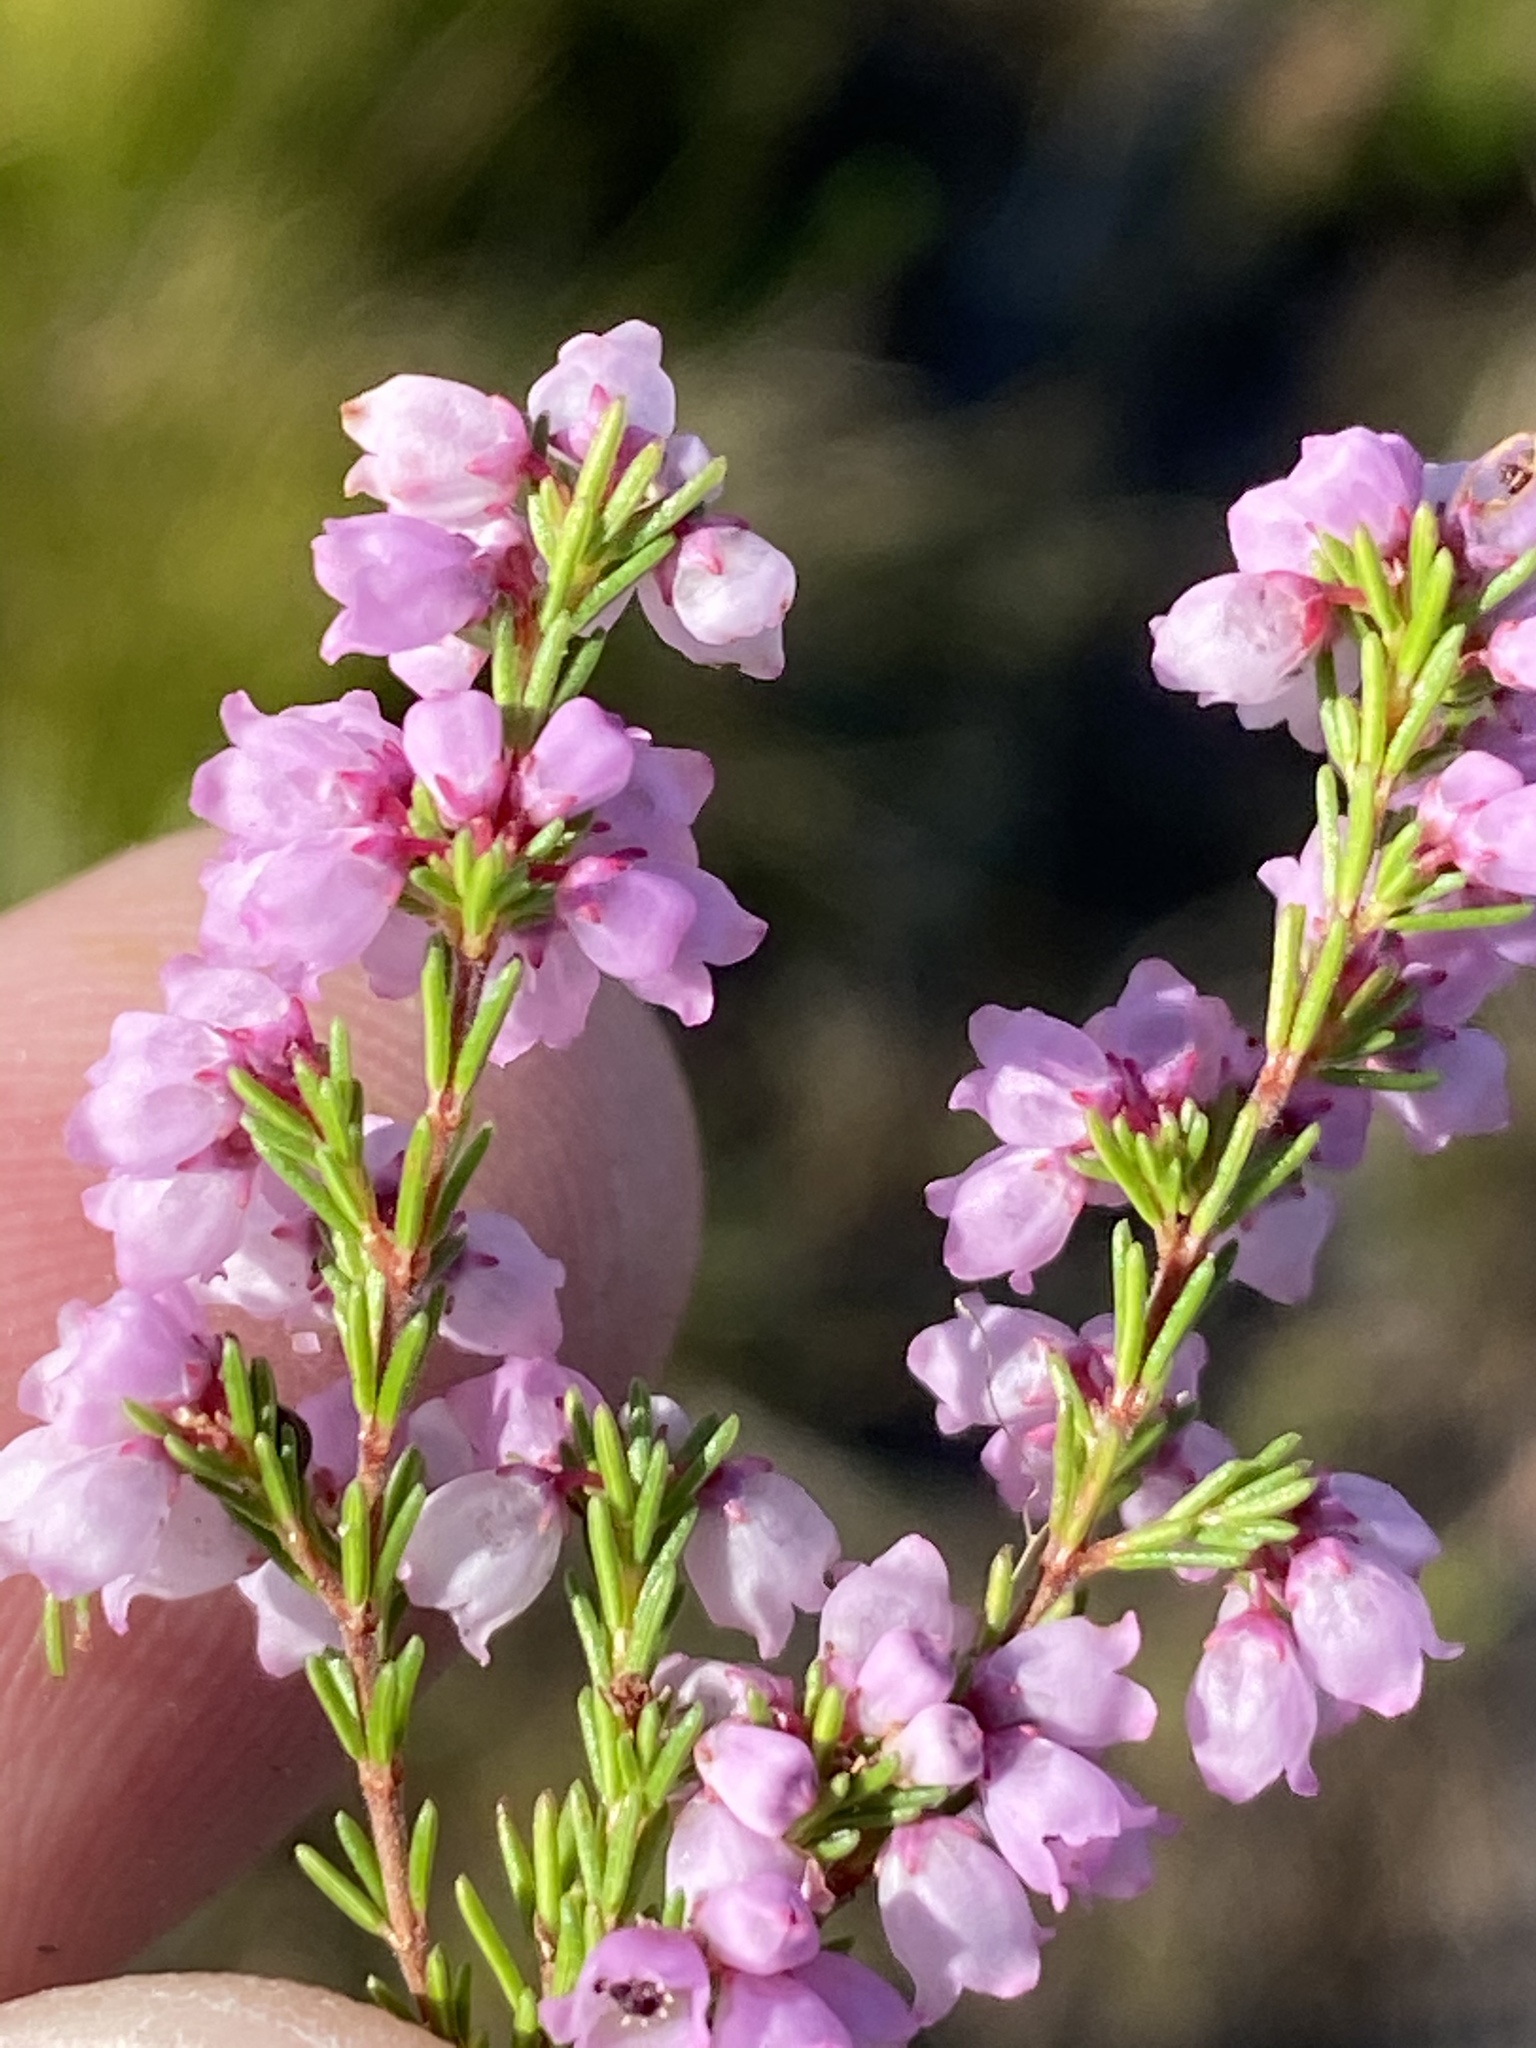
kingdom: Plantae
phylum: Tracheophyta
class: Magnoliopsida
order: Ericales
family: Ericaceae
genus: Erica
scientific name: Erica quadrangularis
